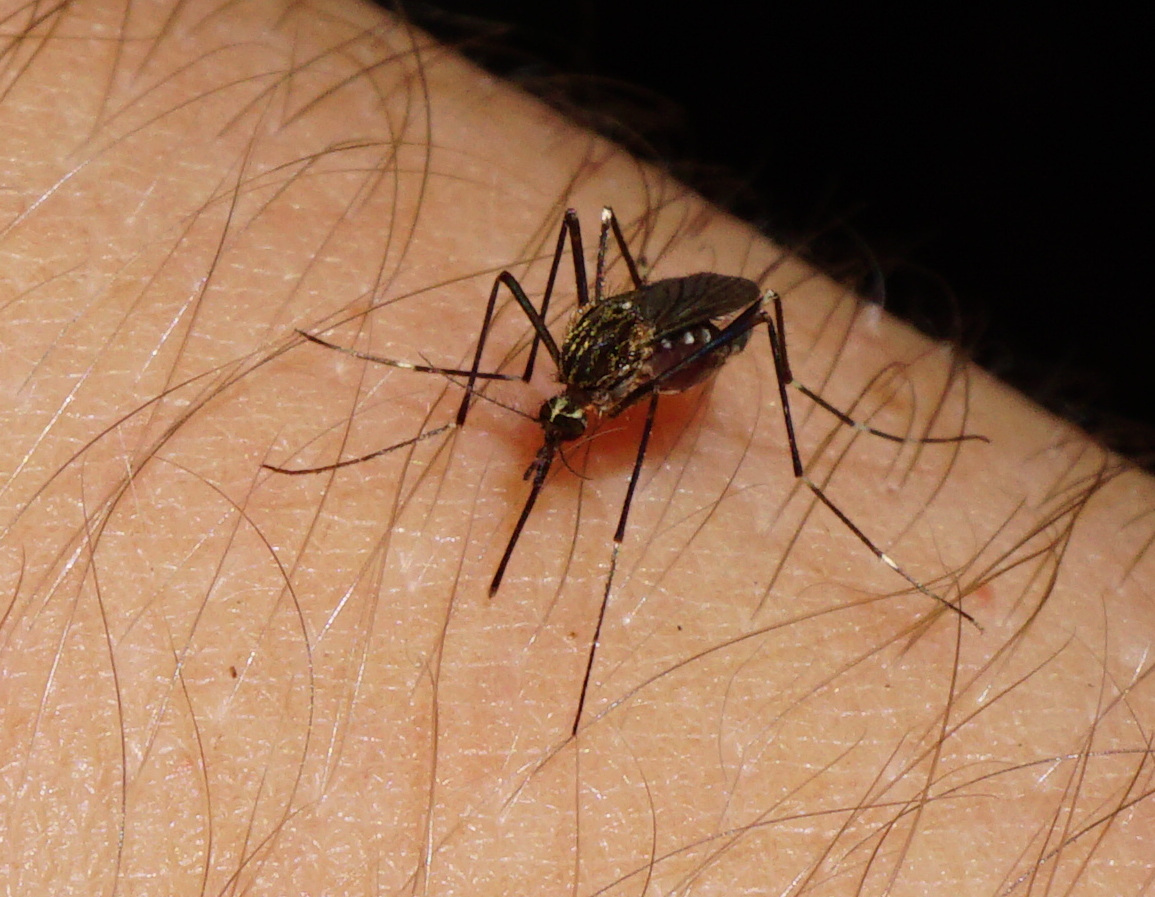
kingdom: Animalia
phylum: Arthropoda
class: Insecta
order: Diptera
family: Culicidae
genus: Aedes
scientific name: Aedes japonicus
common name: Asian bush mosquito
